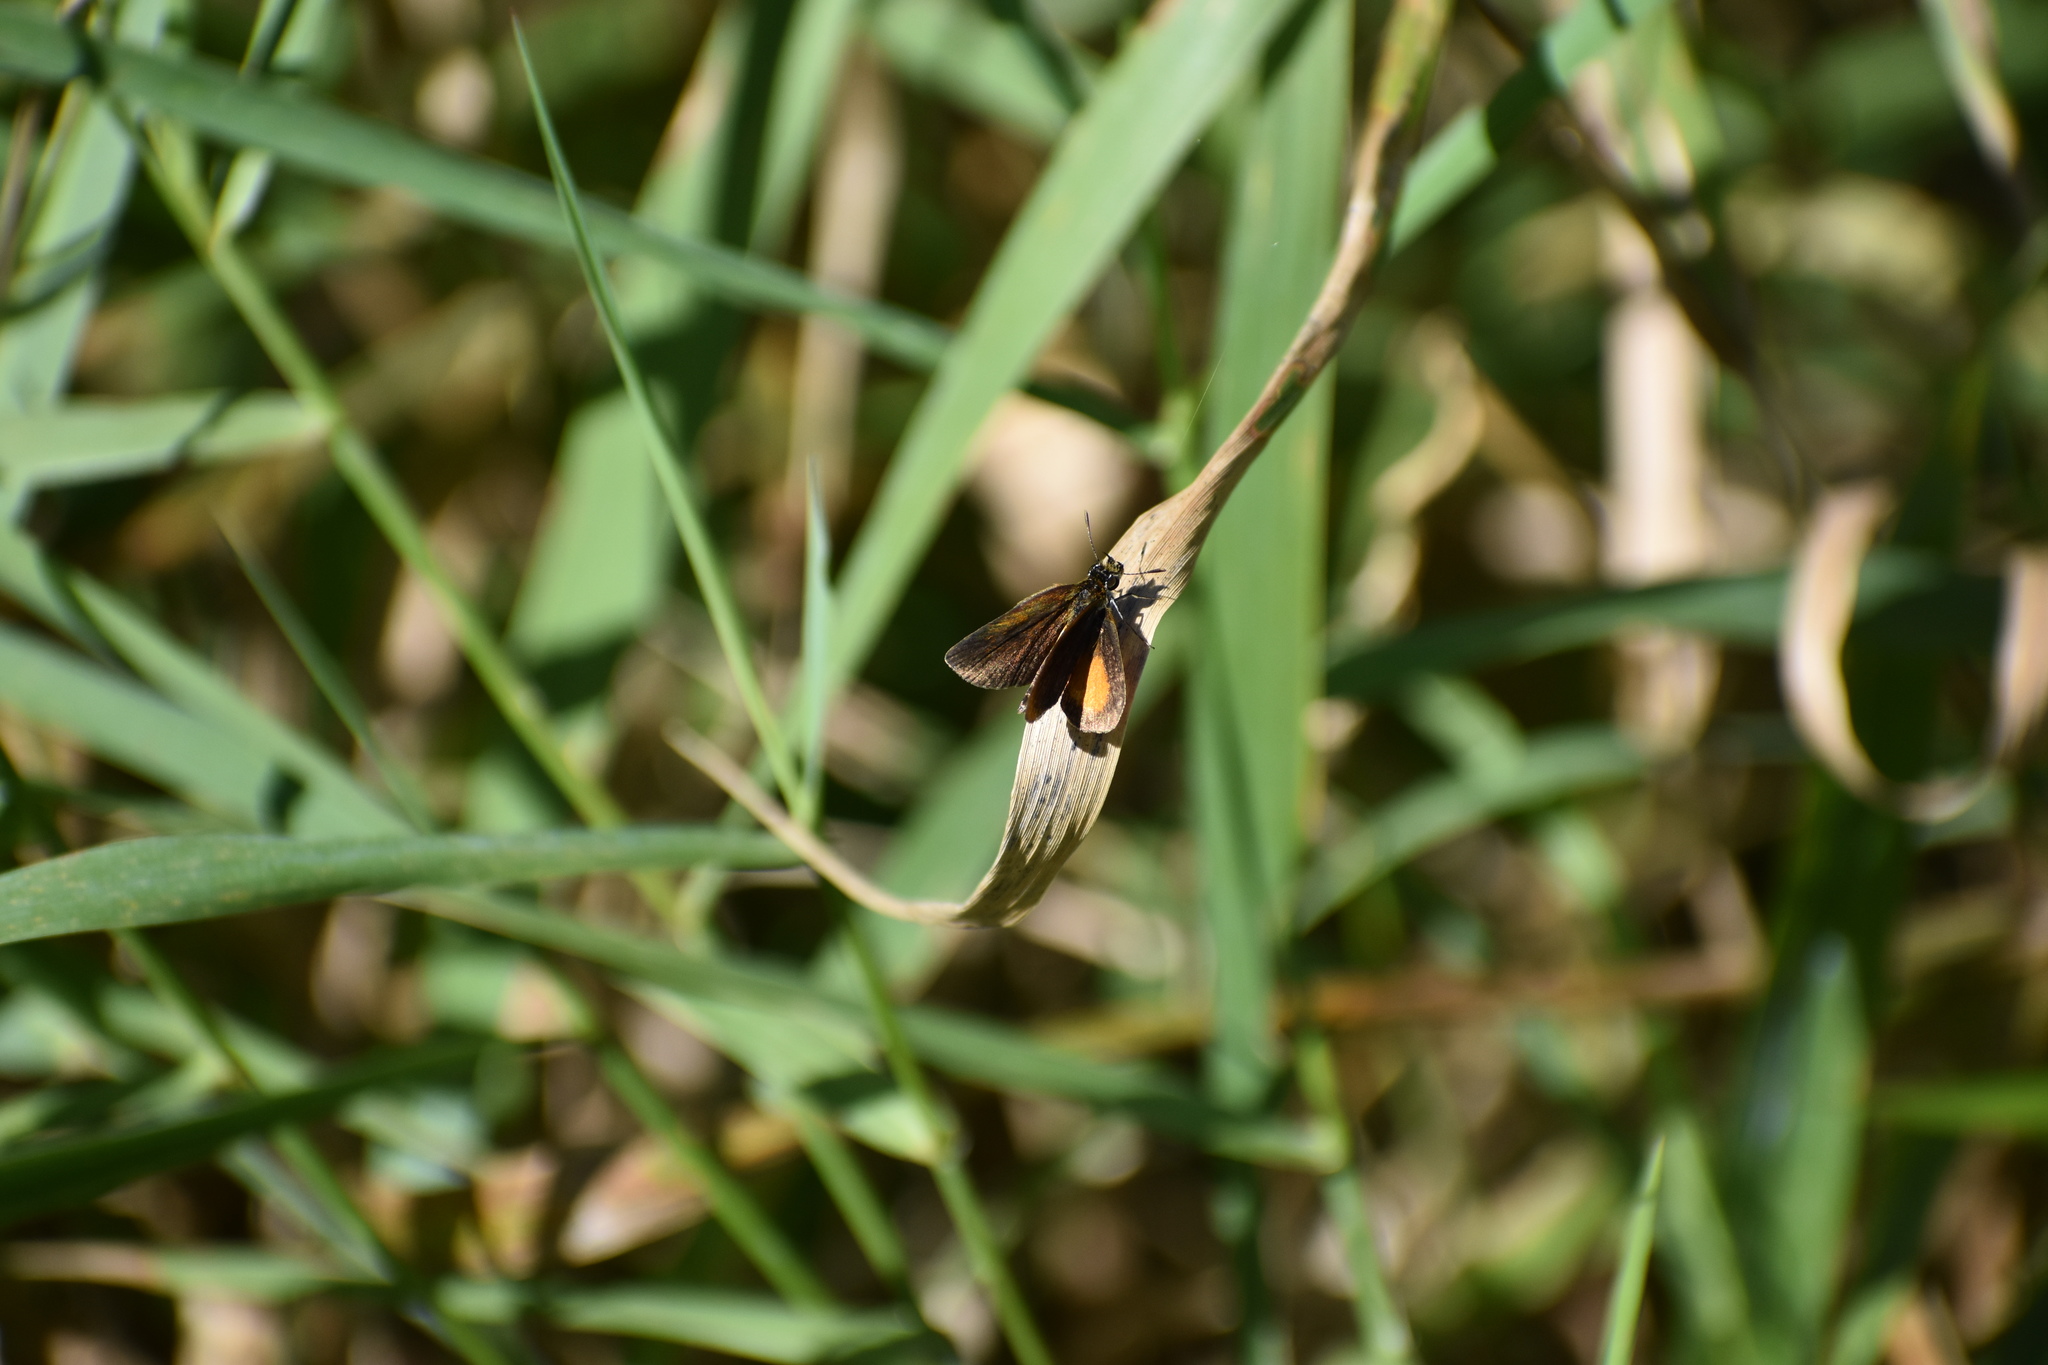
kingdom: Animalia
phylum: Arthropoda
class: Insecta
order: Lepidoptera
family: Hesperiidae
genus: Ancyloxypha
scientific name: Ancyloxypha numitor
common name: Least skipper
